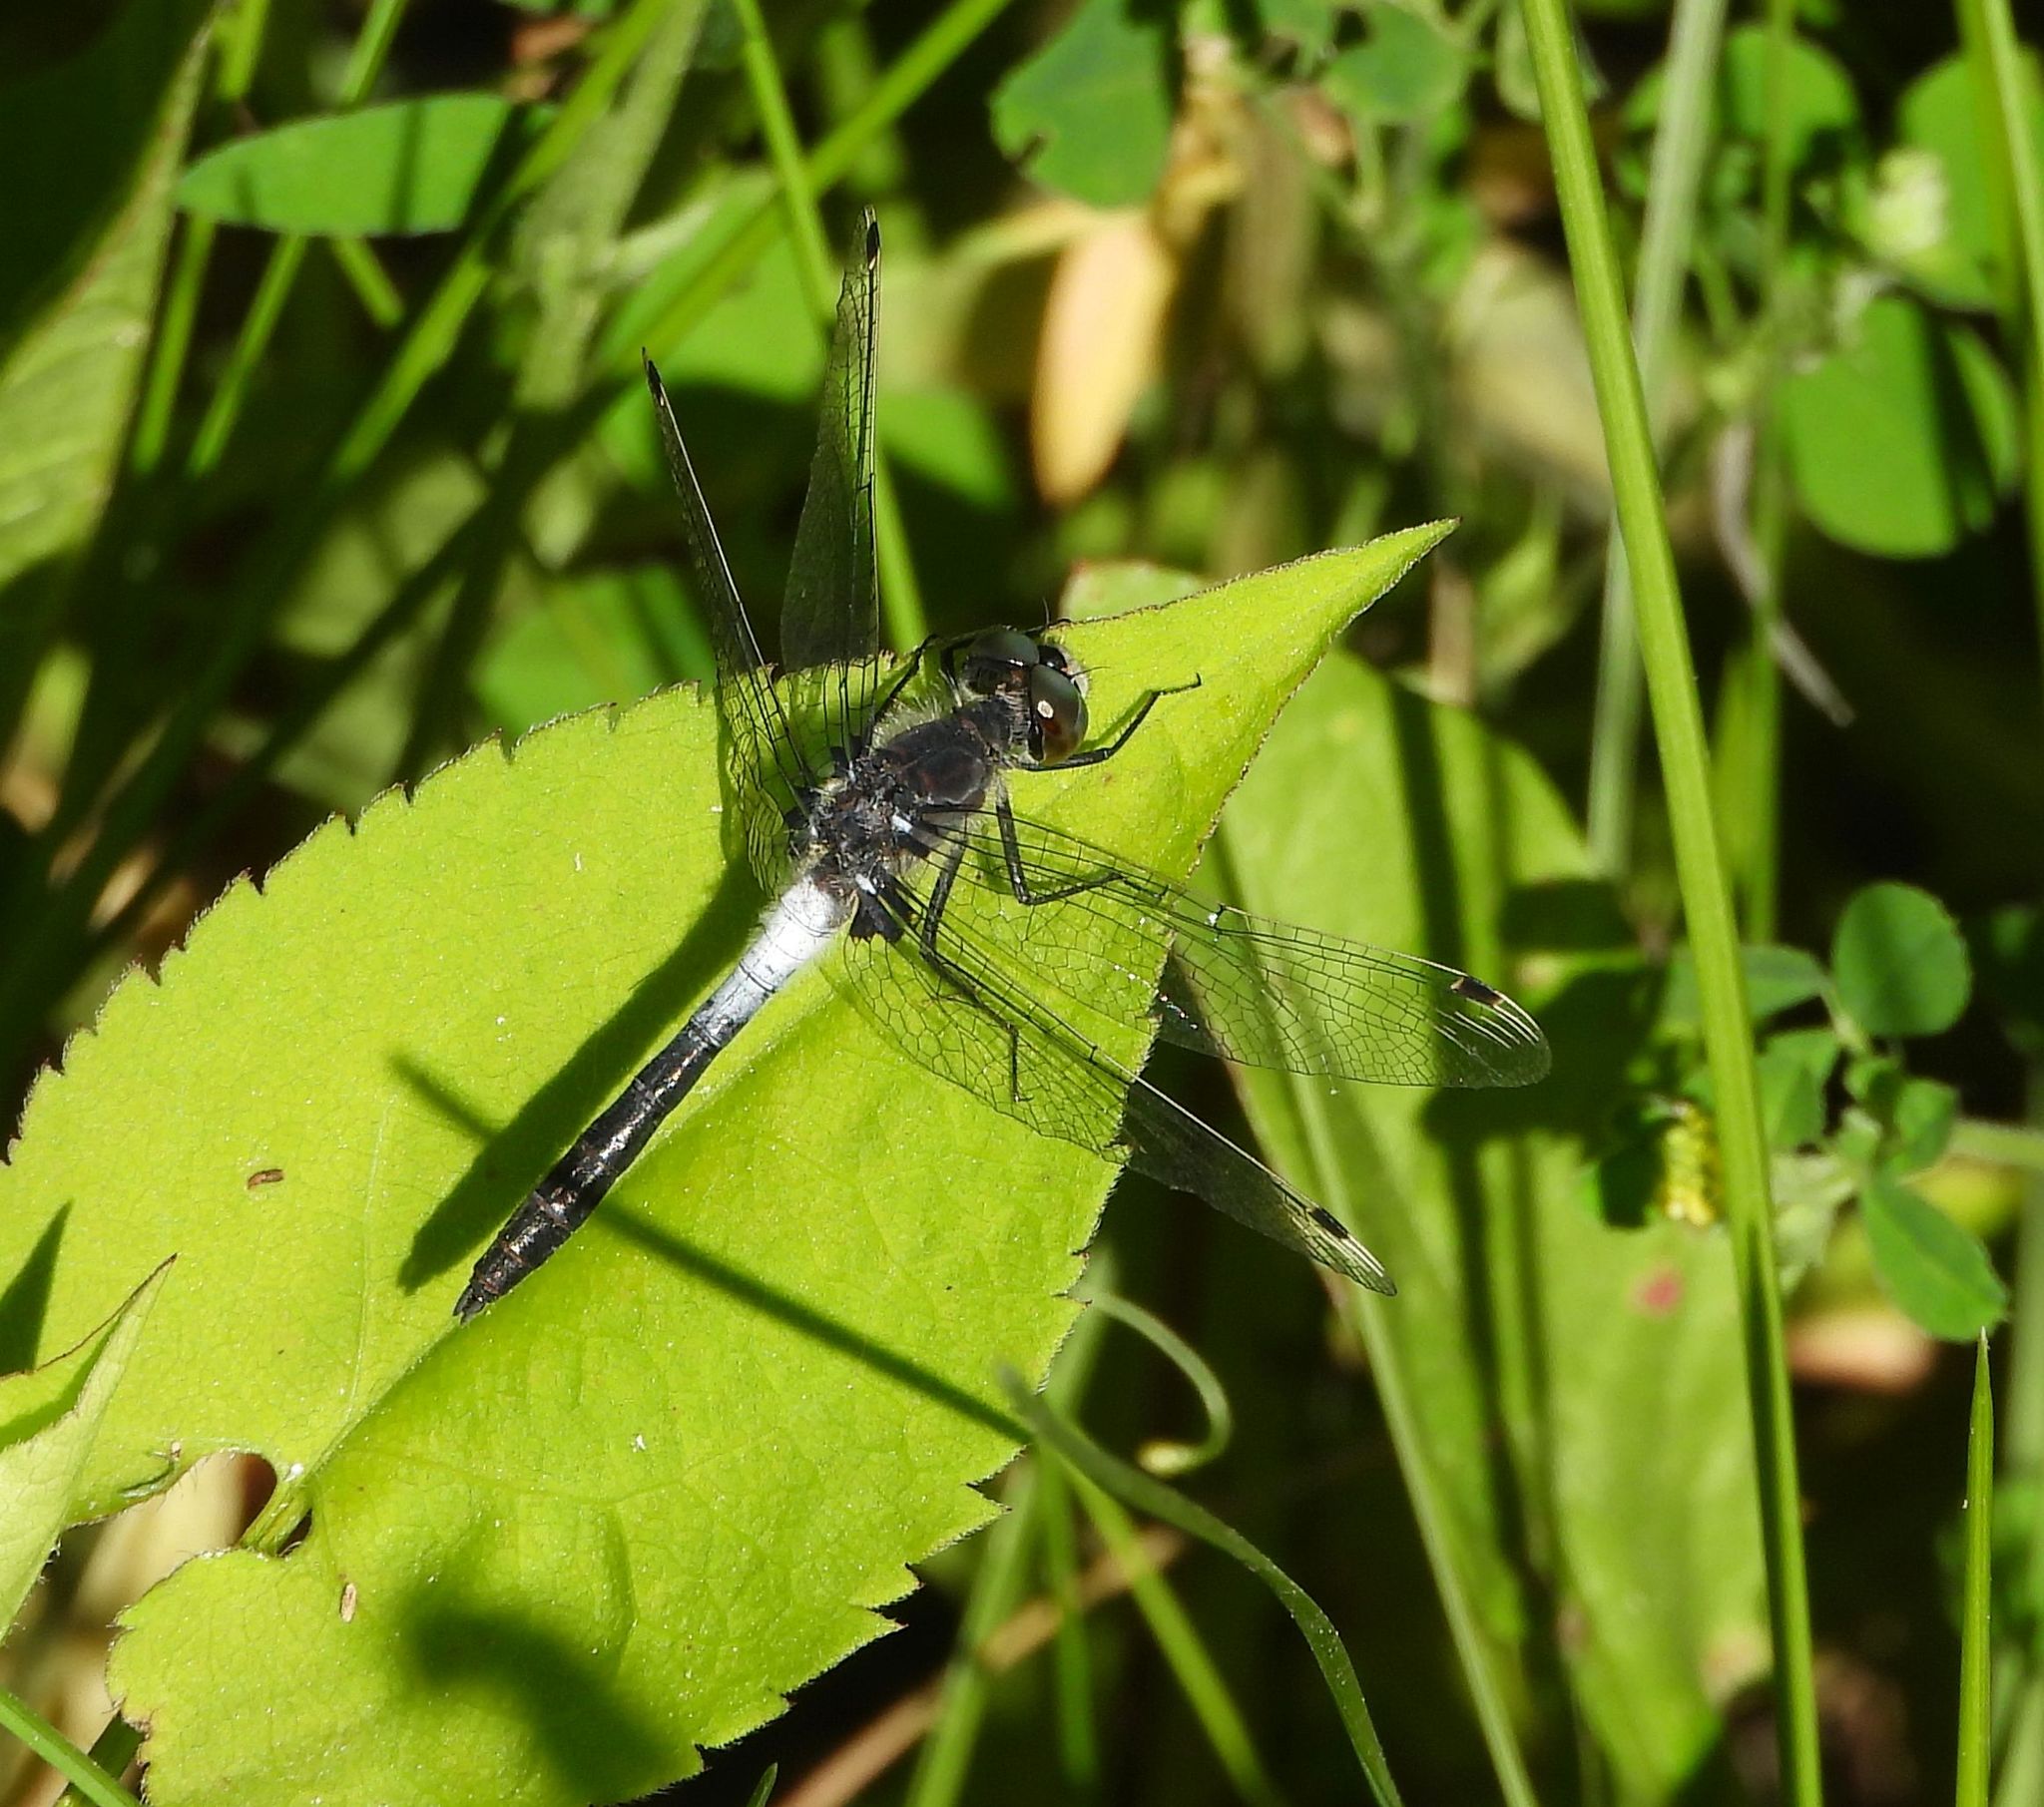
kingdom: Animalia
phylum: Arthropoda
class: Insecta
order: Odonata
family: Libellulidae
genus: Leucorrhinia
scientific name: Leucorrhinia frigida
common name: Frosted whiteface
